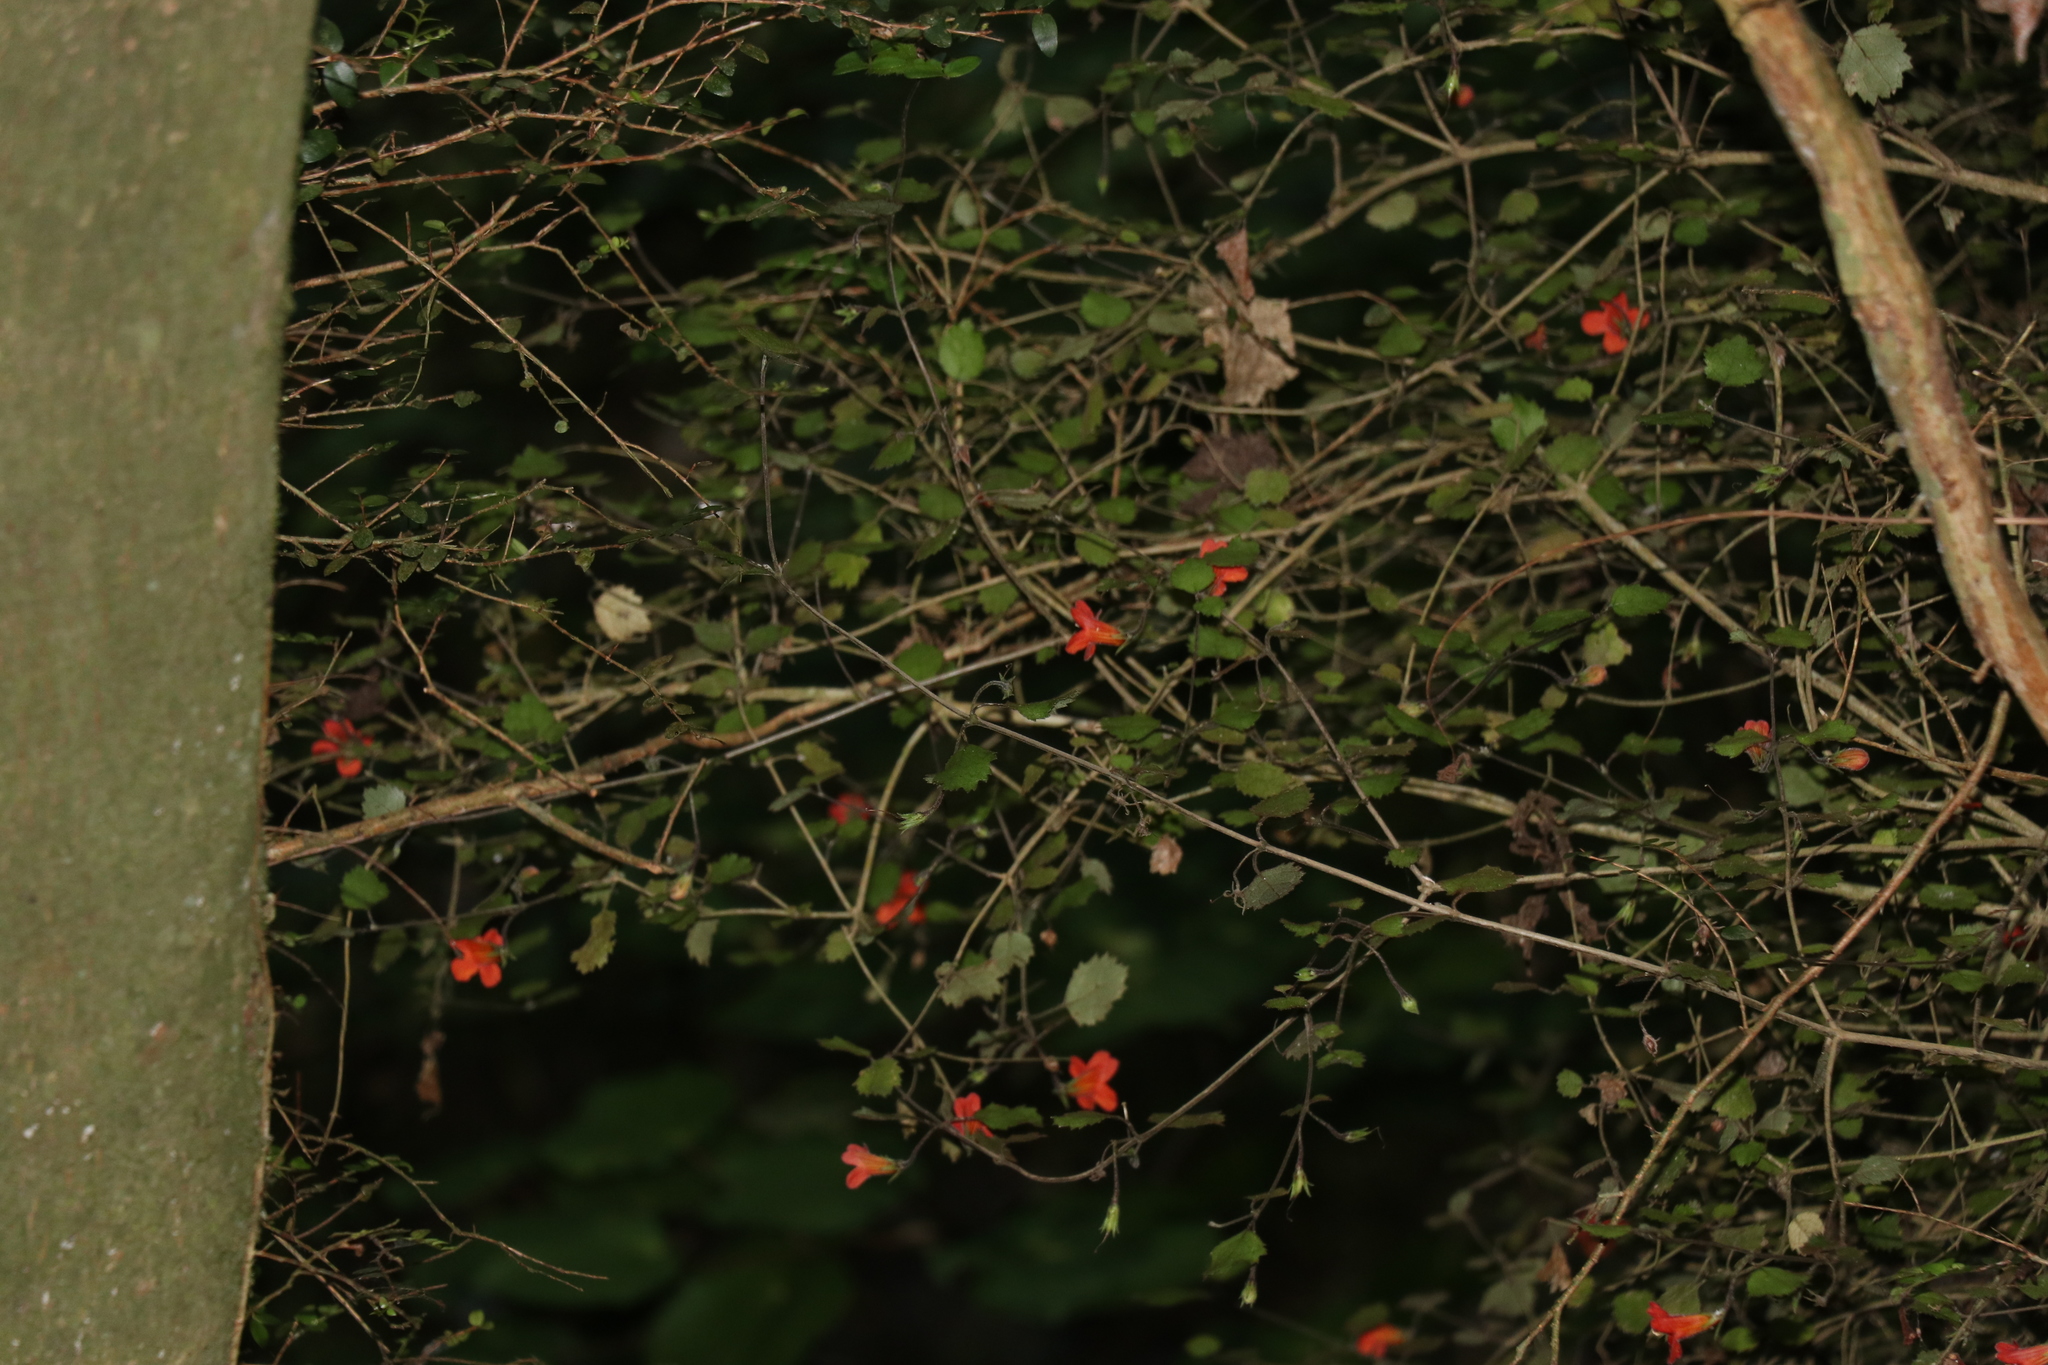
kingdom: Plantae
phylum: Tracheophyta
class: Magnoliopsida
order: Lamiales
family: Gesneriaceae
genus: Rhabdothamnus
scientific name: Rhabdothamnus solandri
